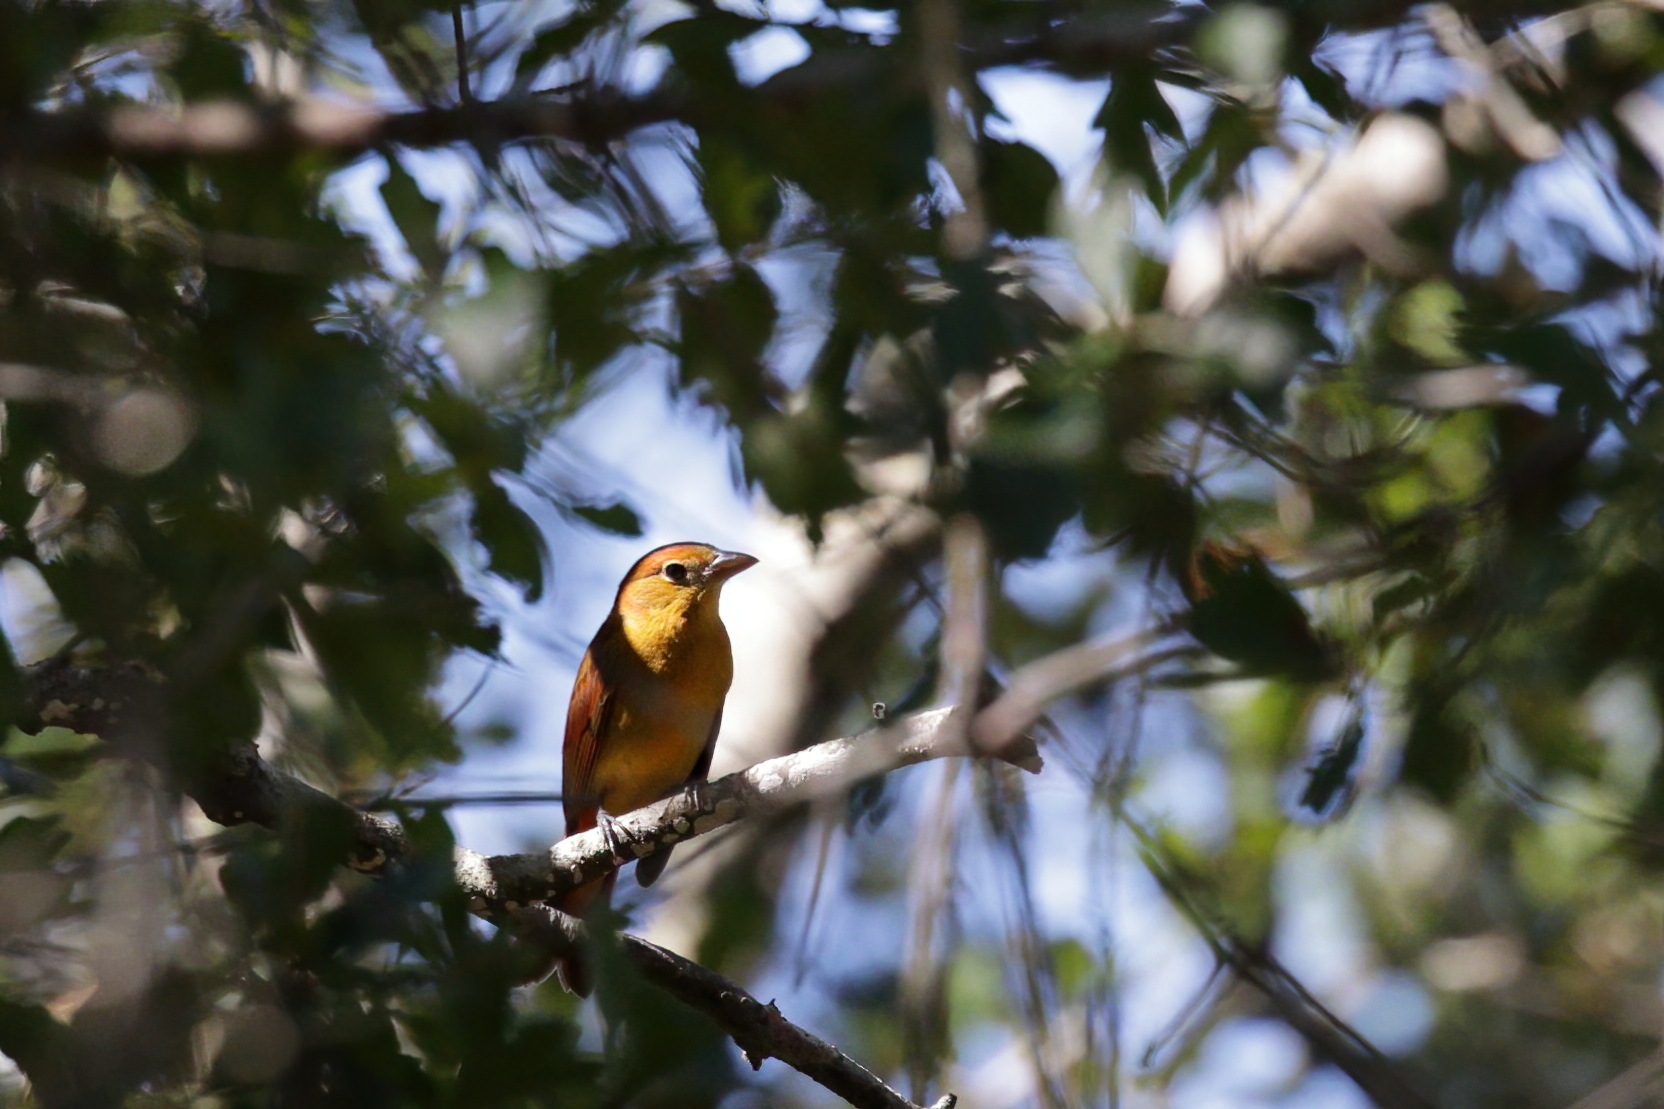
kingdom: Animalia
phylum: Chordata
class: Aves
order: Passeriformes
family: Cardinalidae
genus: Piranga
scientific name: Piranga rubra
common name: Summer tanager
